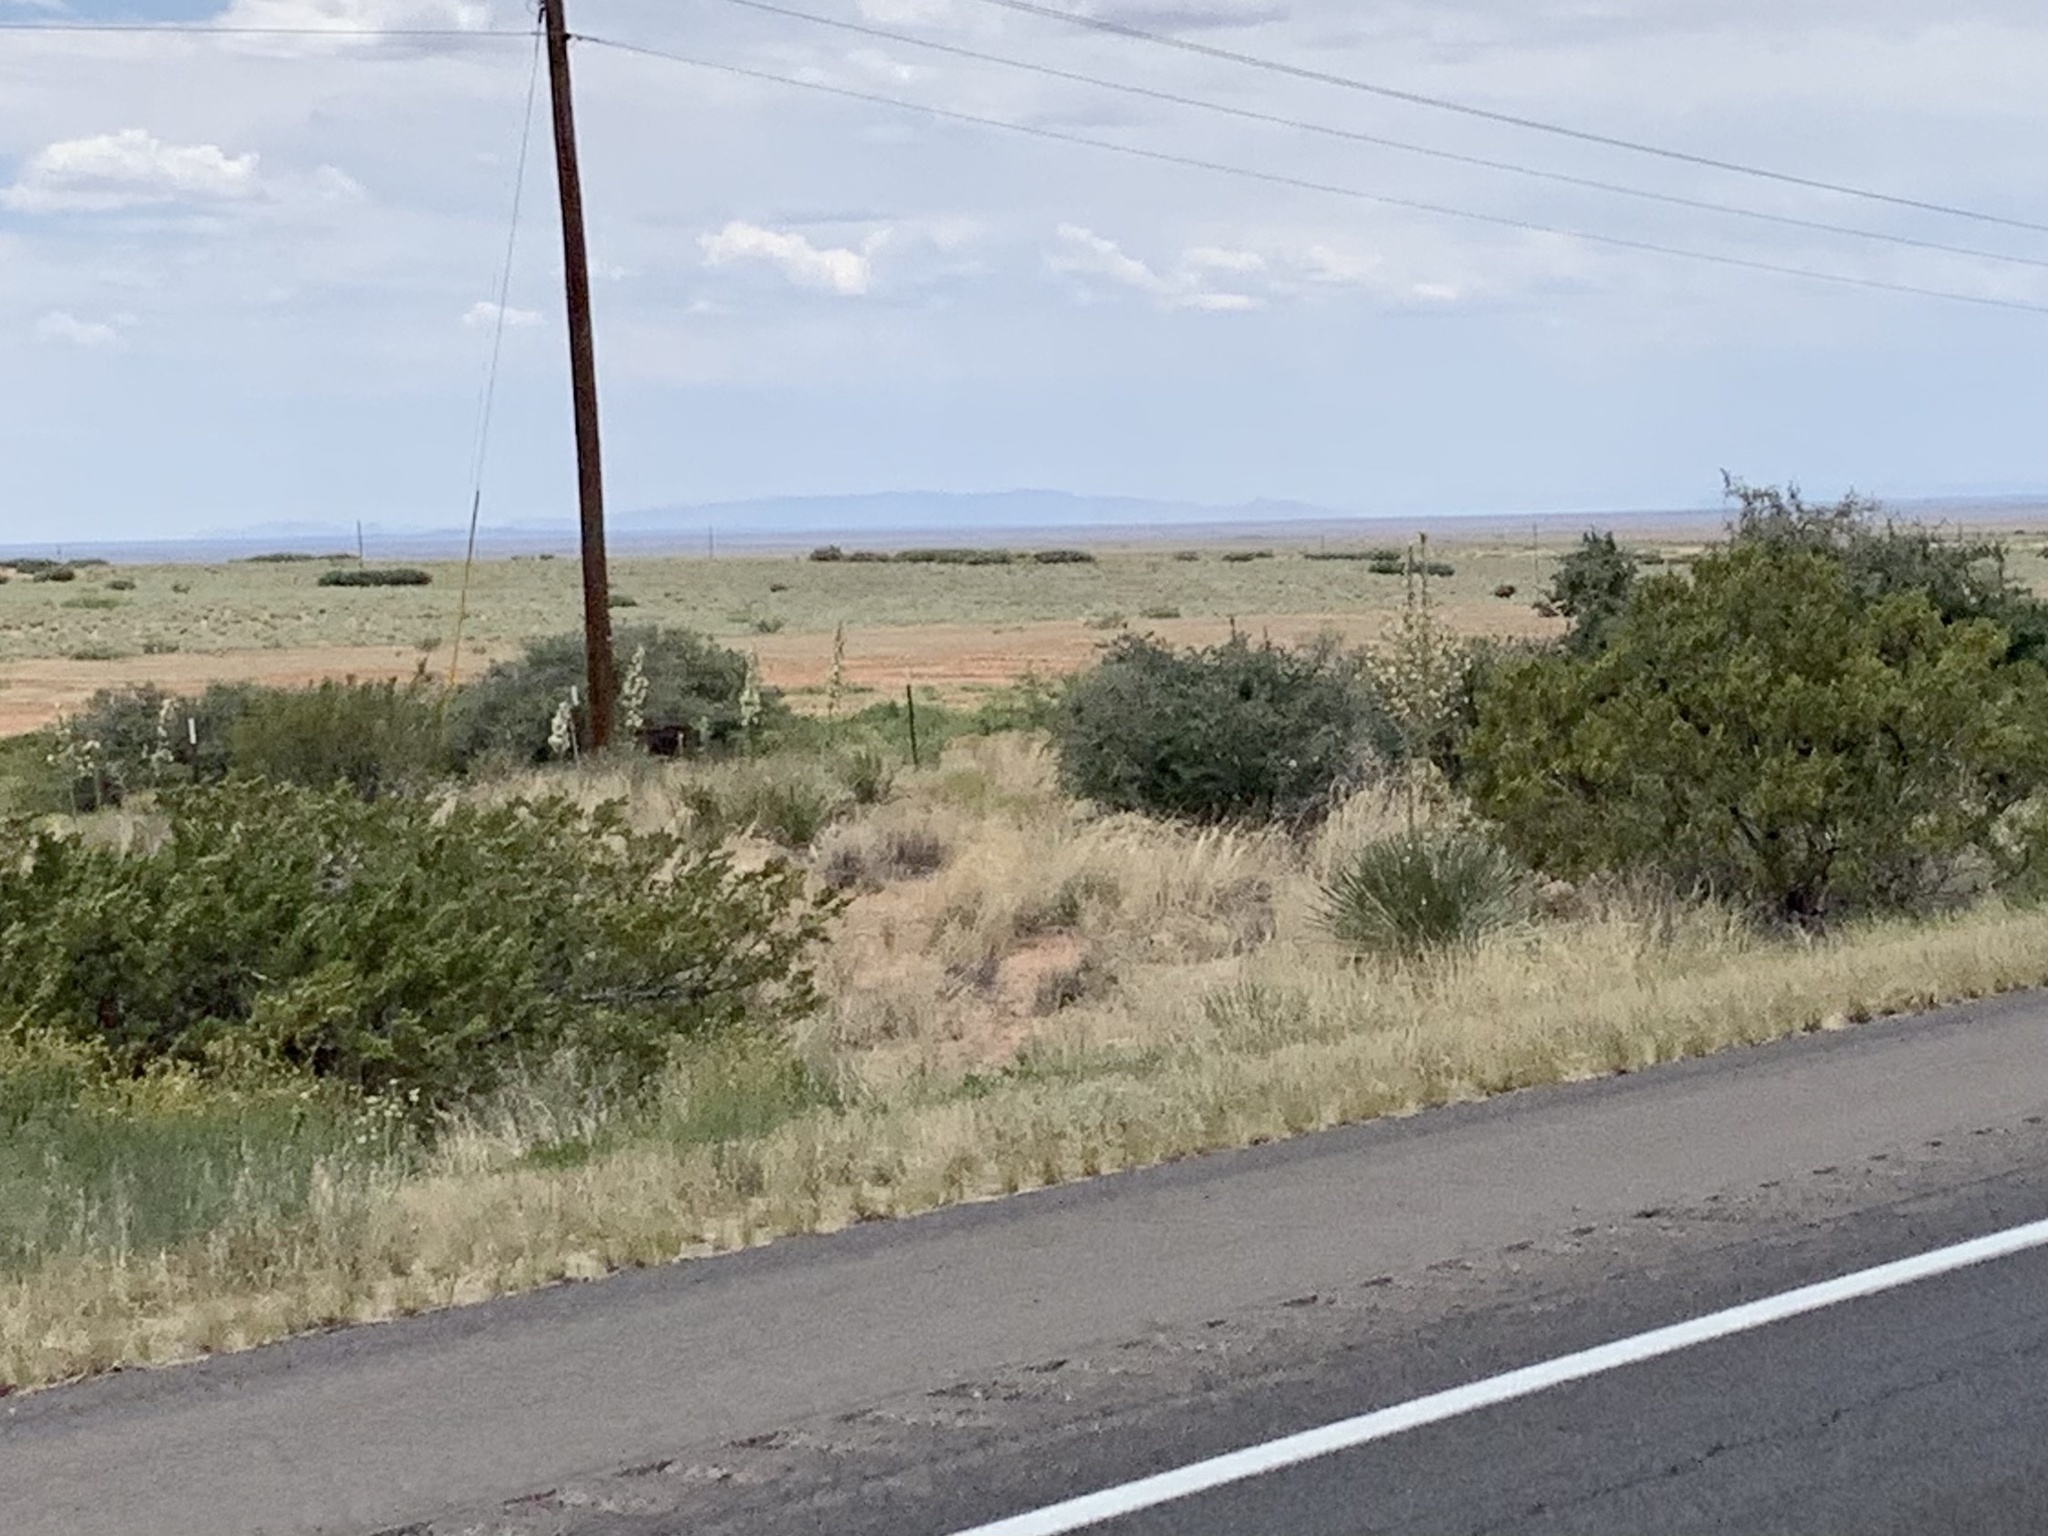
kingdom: Plantae
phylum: Tracheophyta
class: Magnoliopsida
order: Zygophyllales
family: Zygophyllaceae
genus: Larrea
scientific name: Larrea tridentata
